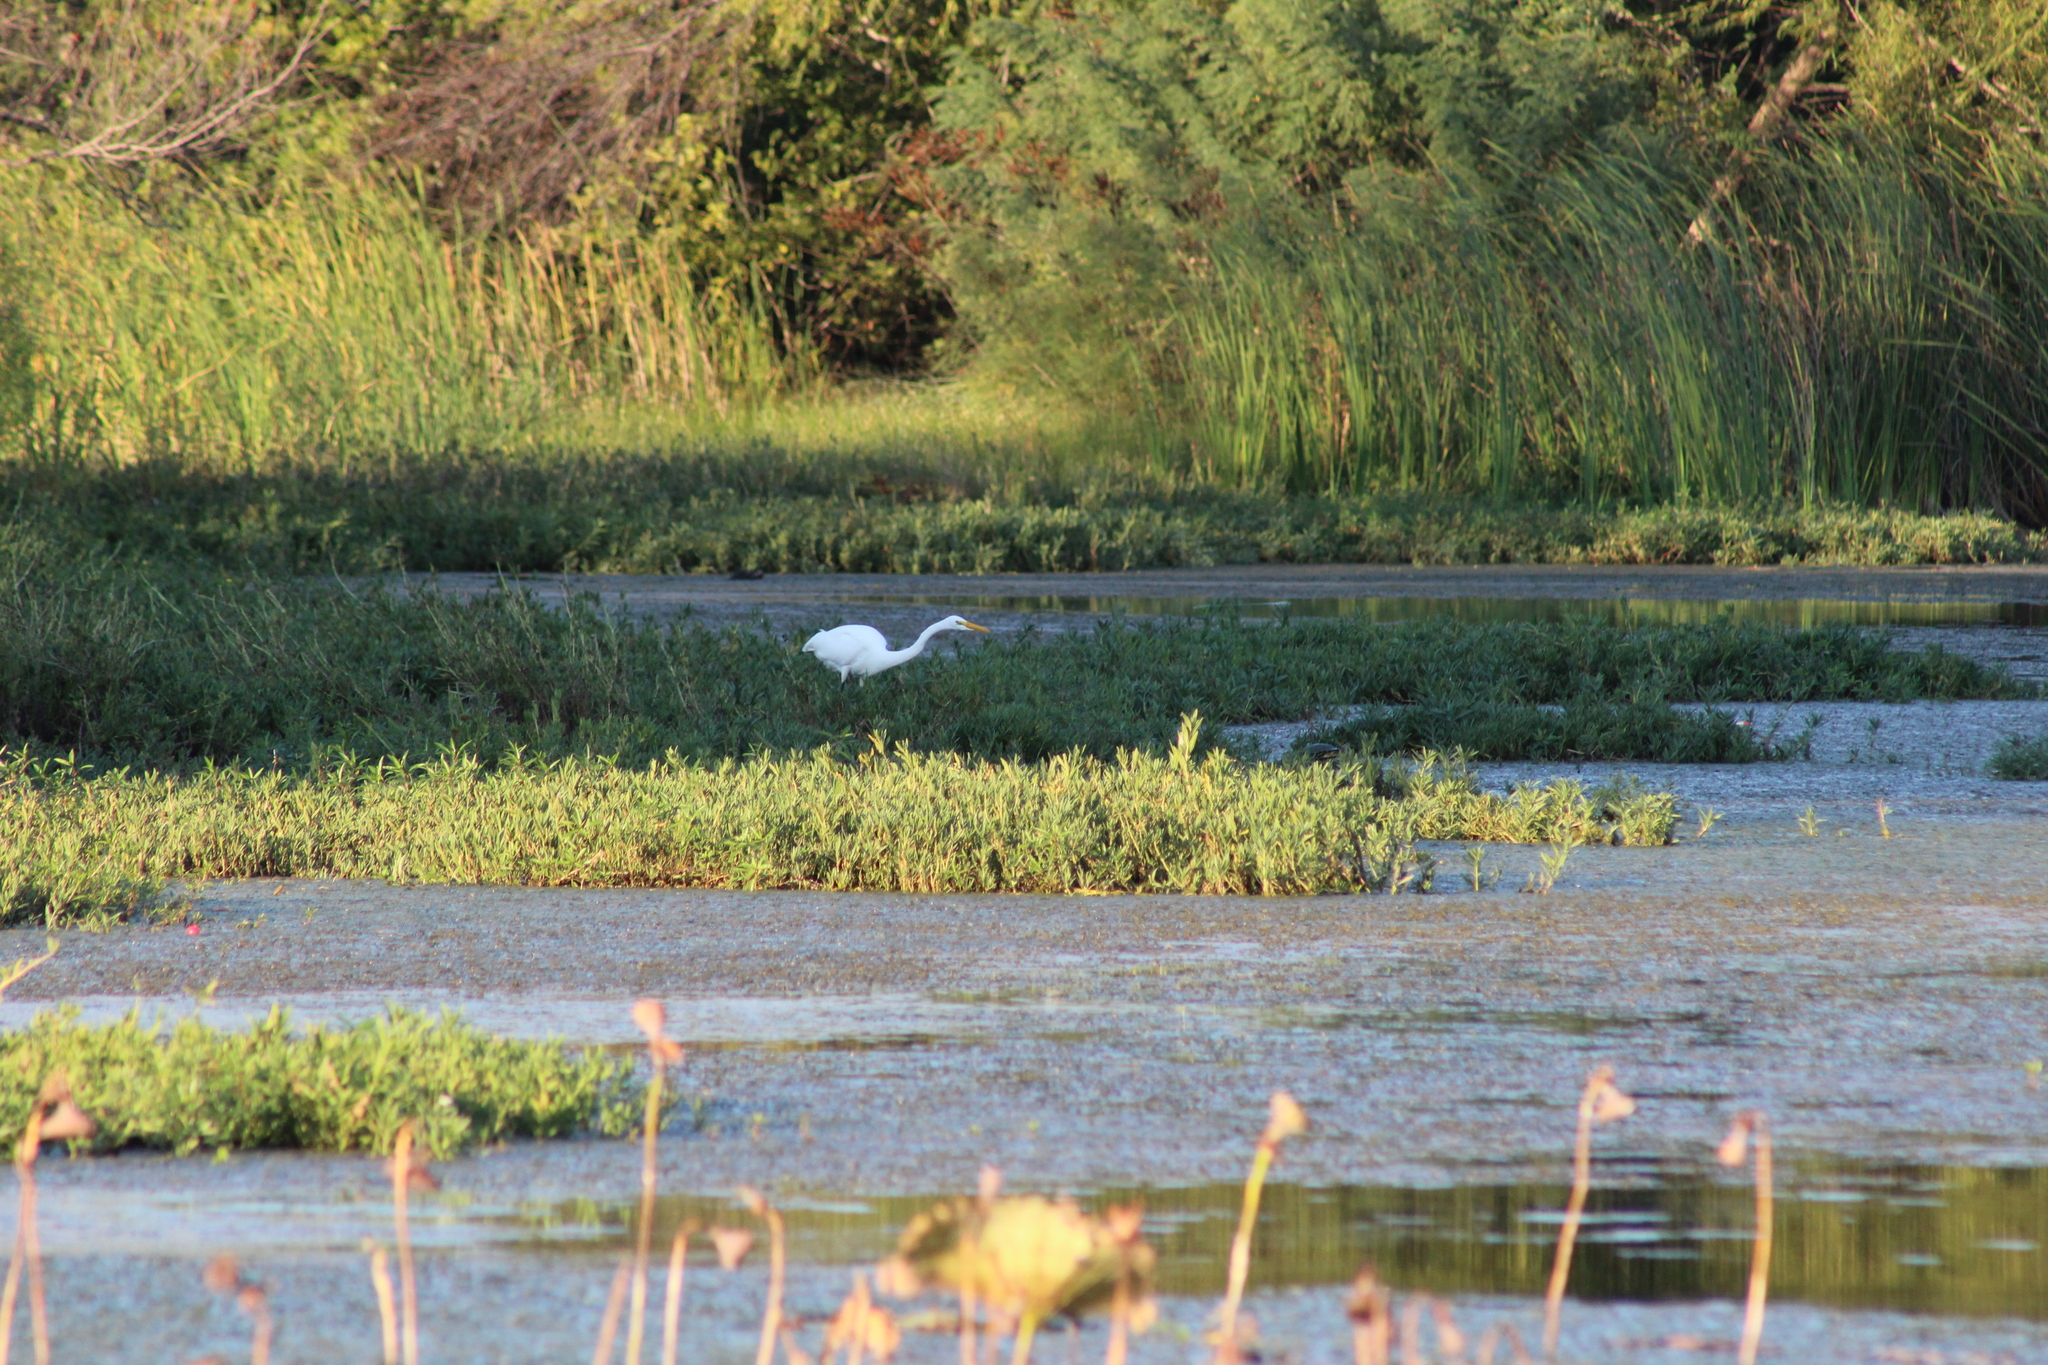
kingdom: Animalia
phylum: Chordata
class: Aves
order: Pelecaniformes
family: Ardeidae
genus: Ardea
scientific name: Ardea alba
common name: Great egret
